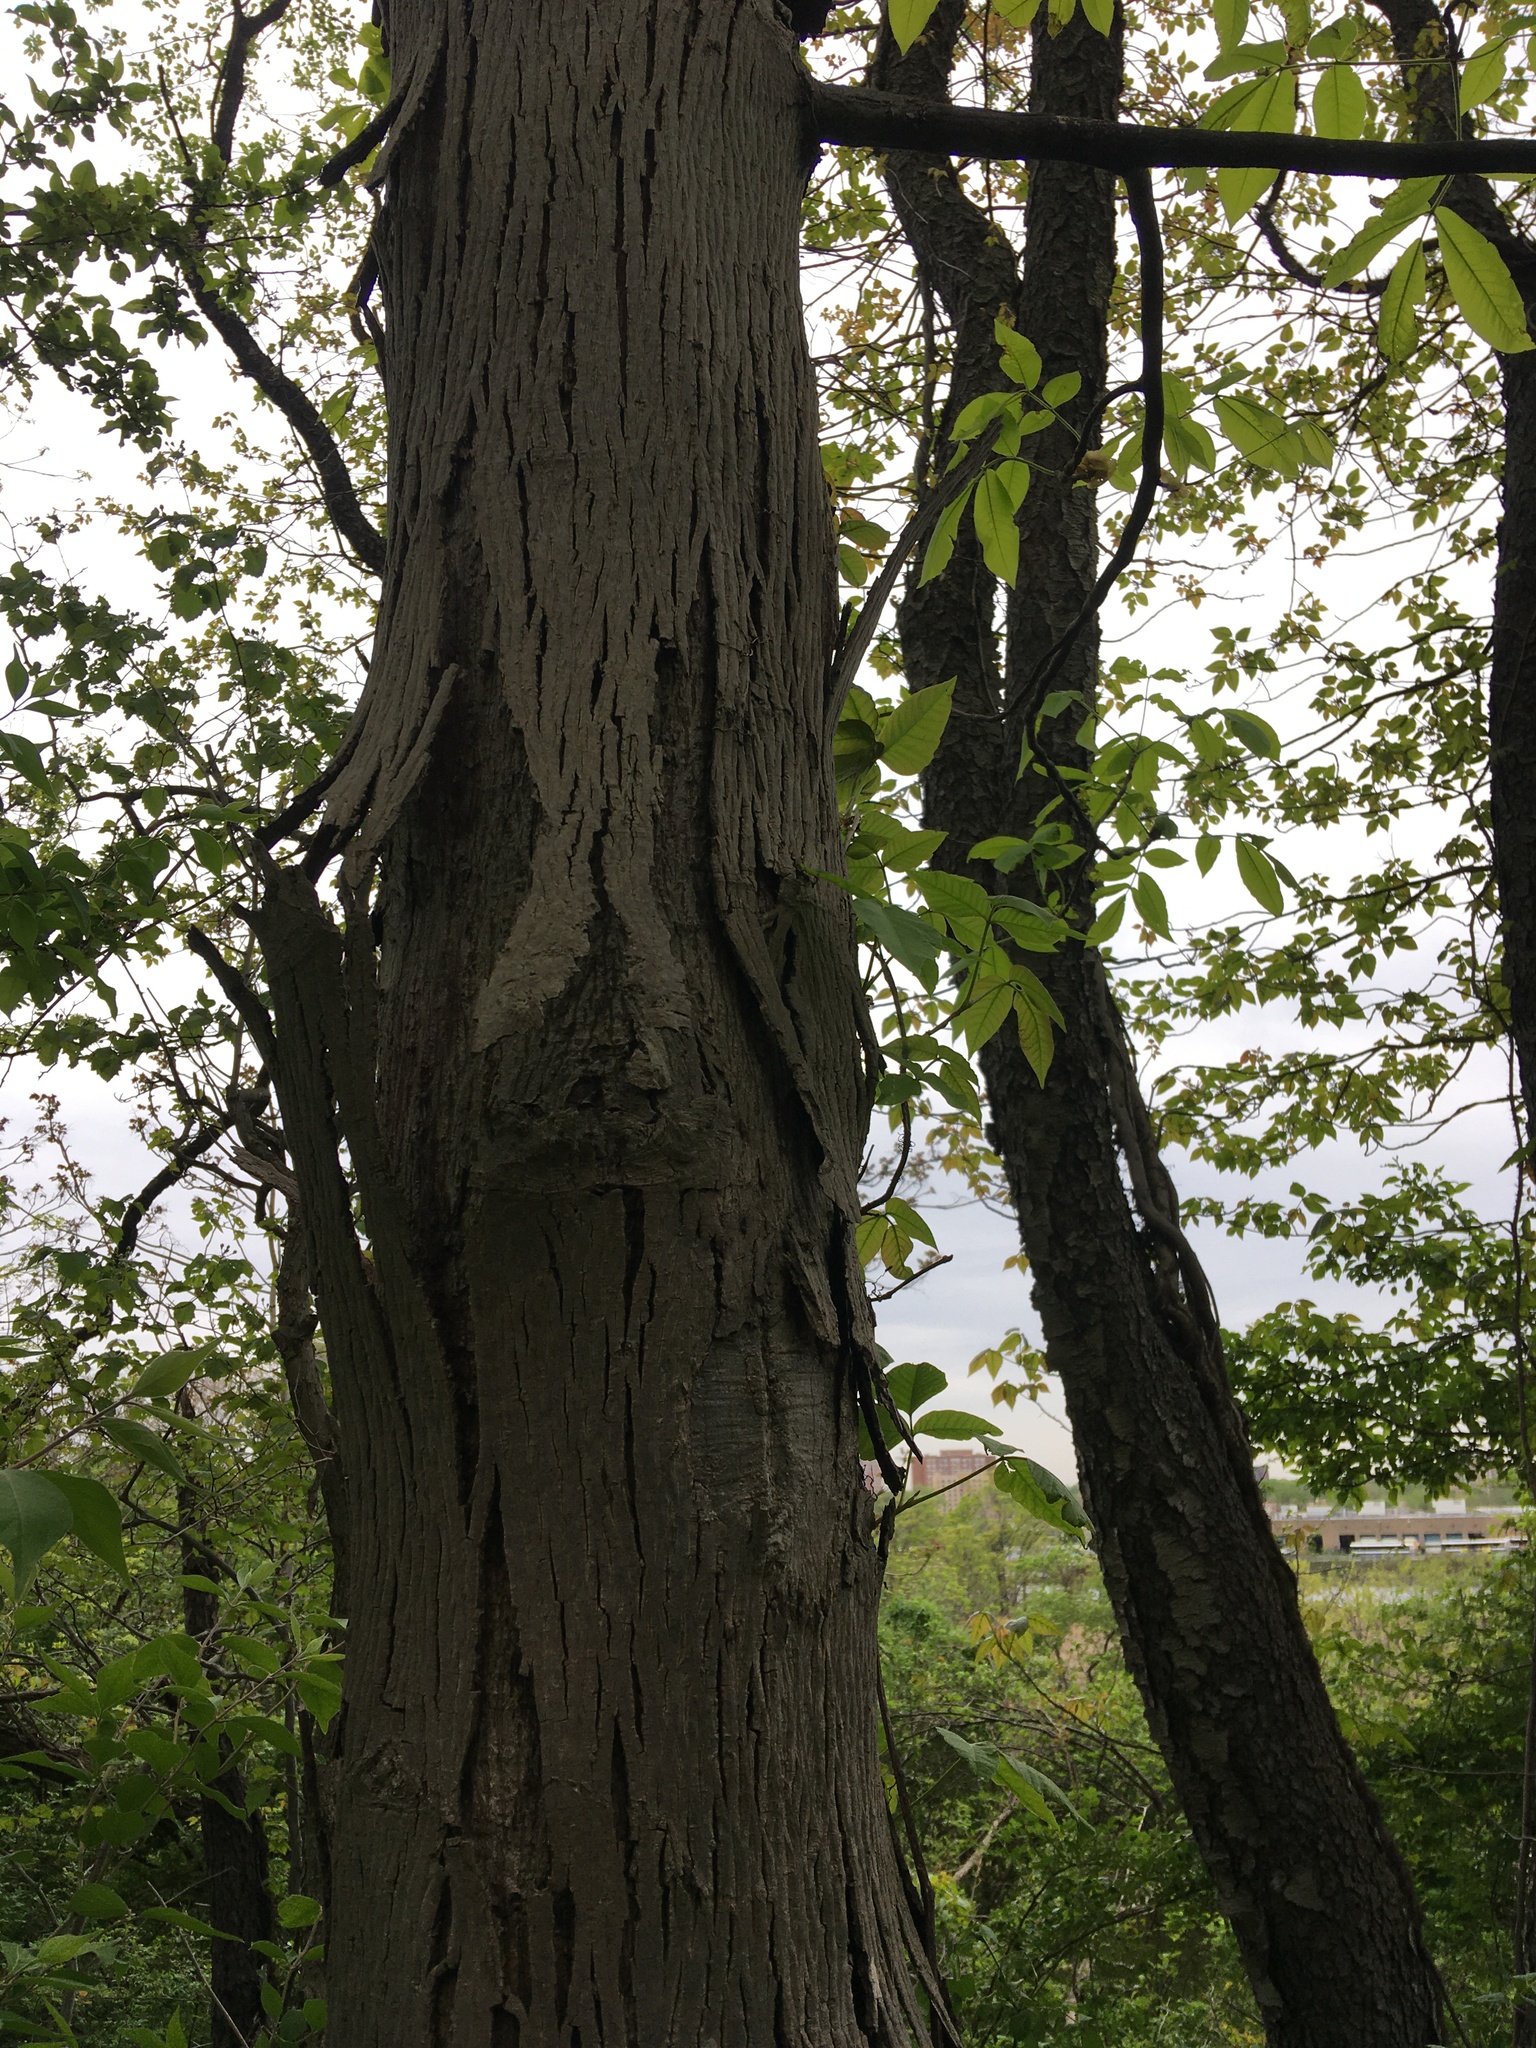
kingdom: Plantae
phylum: Tracheophyta
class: Magnoliopsida
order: Fagales
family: Juglandaceae
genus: Carya
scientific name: Carya ovata
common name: Shagbark hickory
